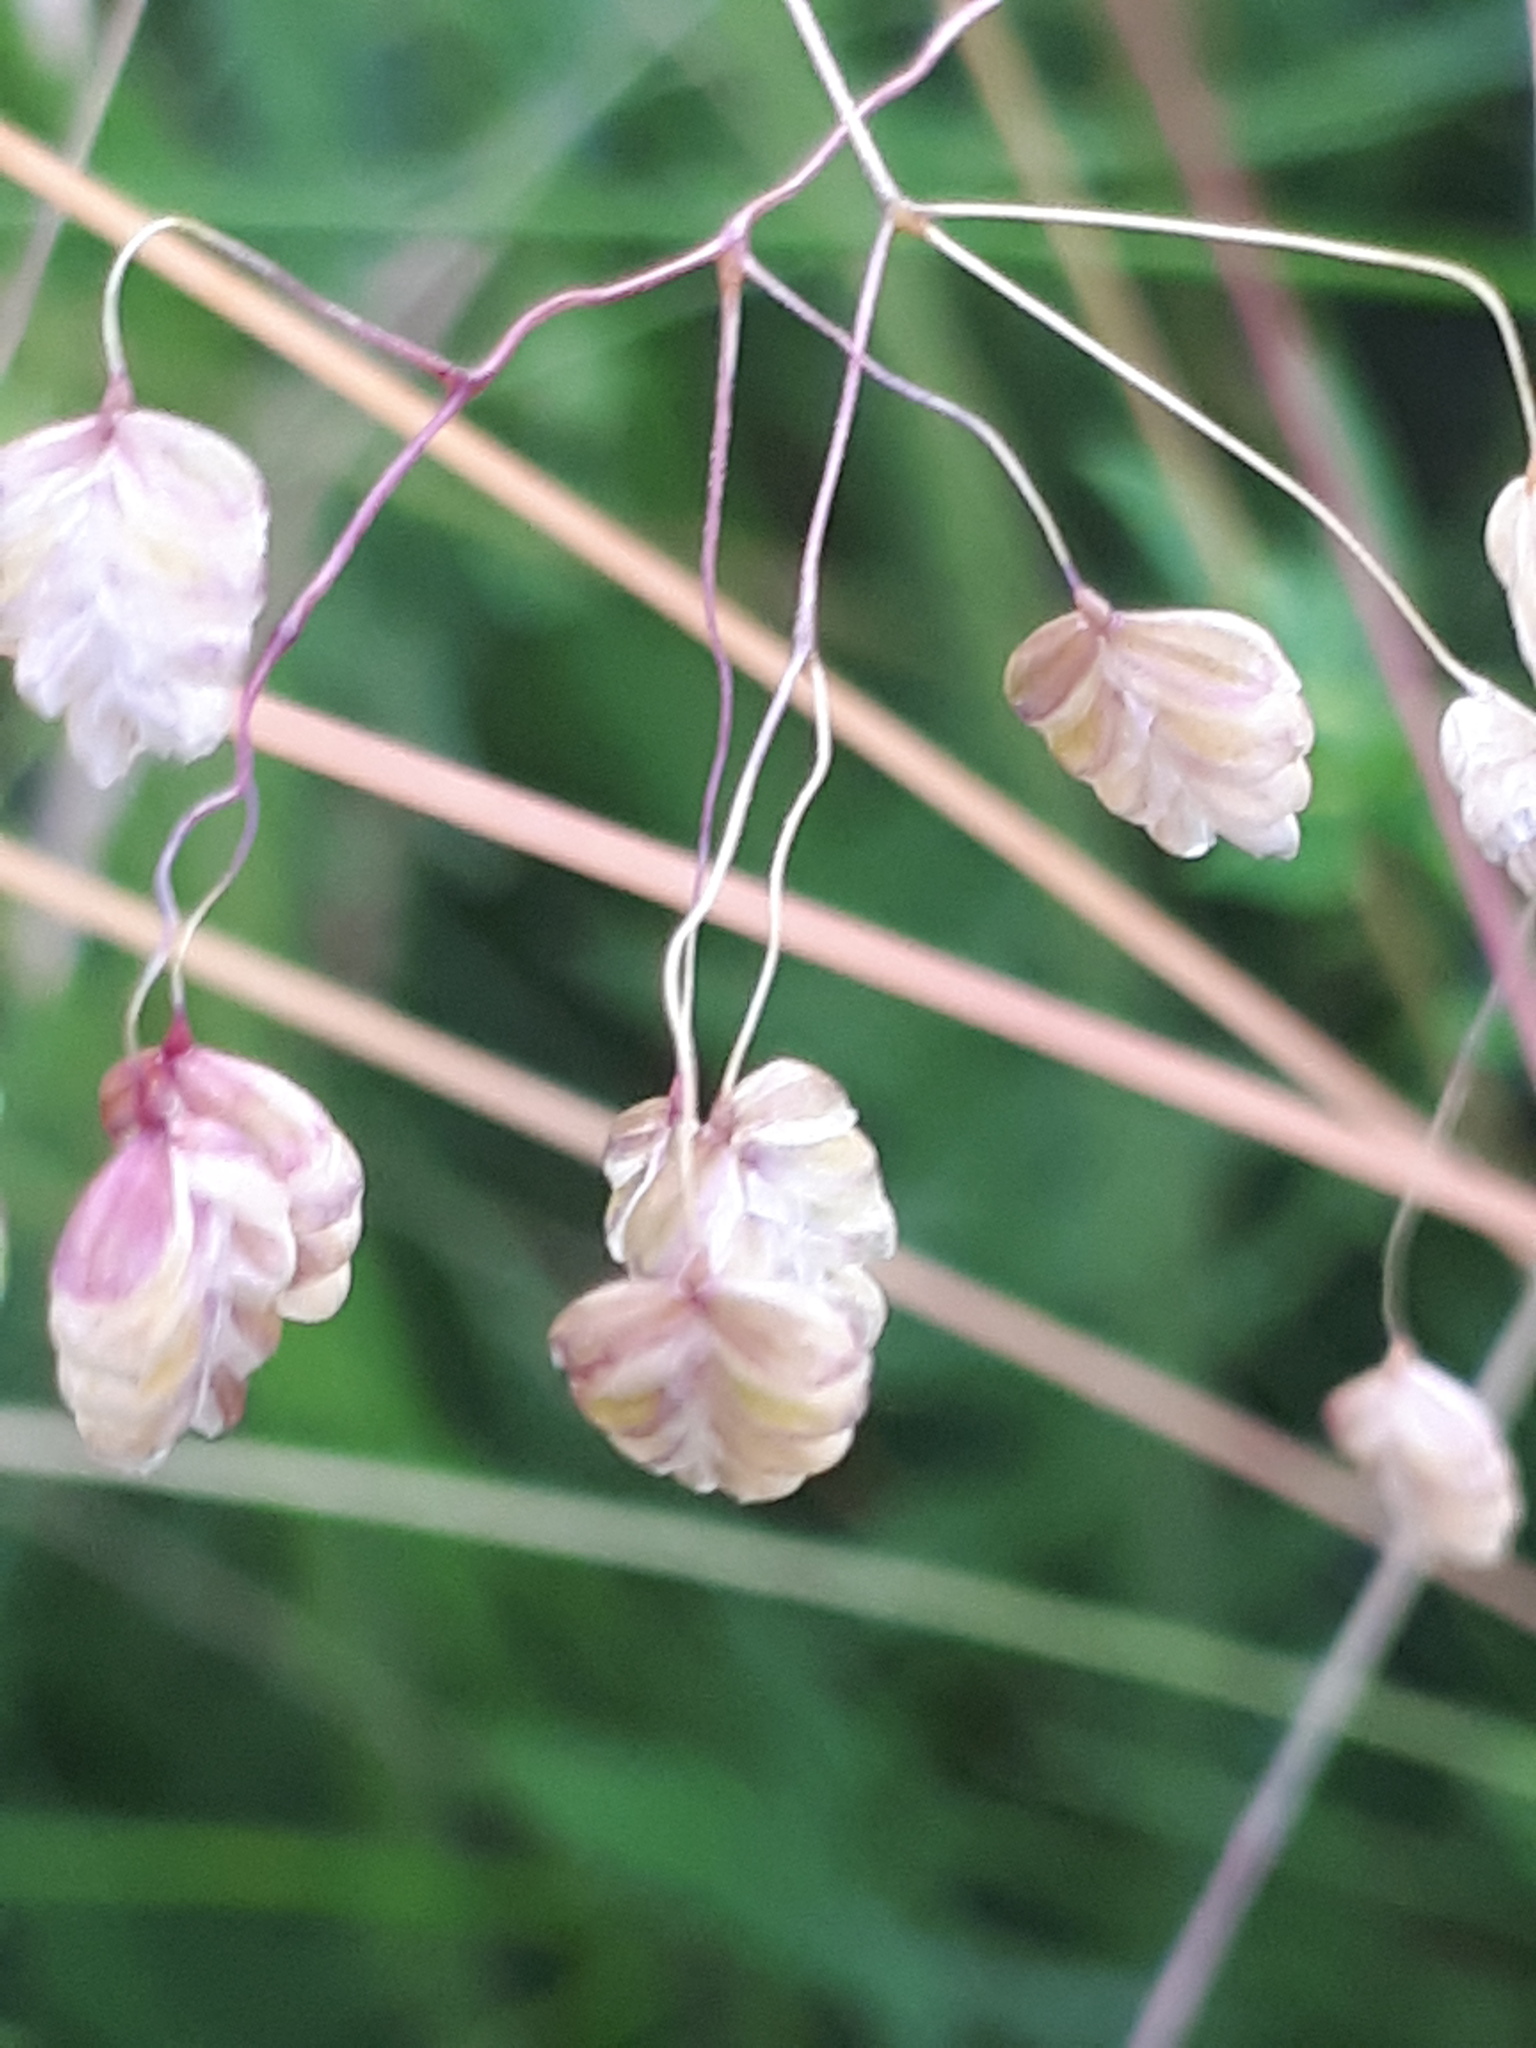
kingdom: Plantae
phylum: Tracheophyta
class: Liliopsida
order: Poales
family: Poaceae
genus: Briza
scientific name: Briza media
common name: Quaking grass
